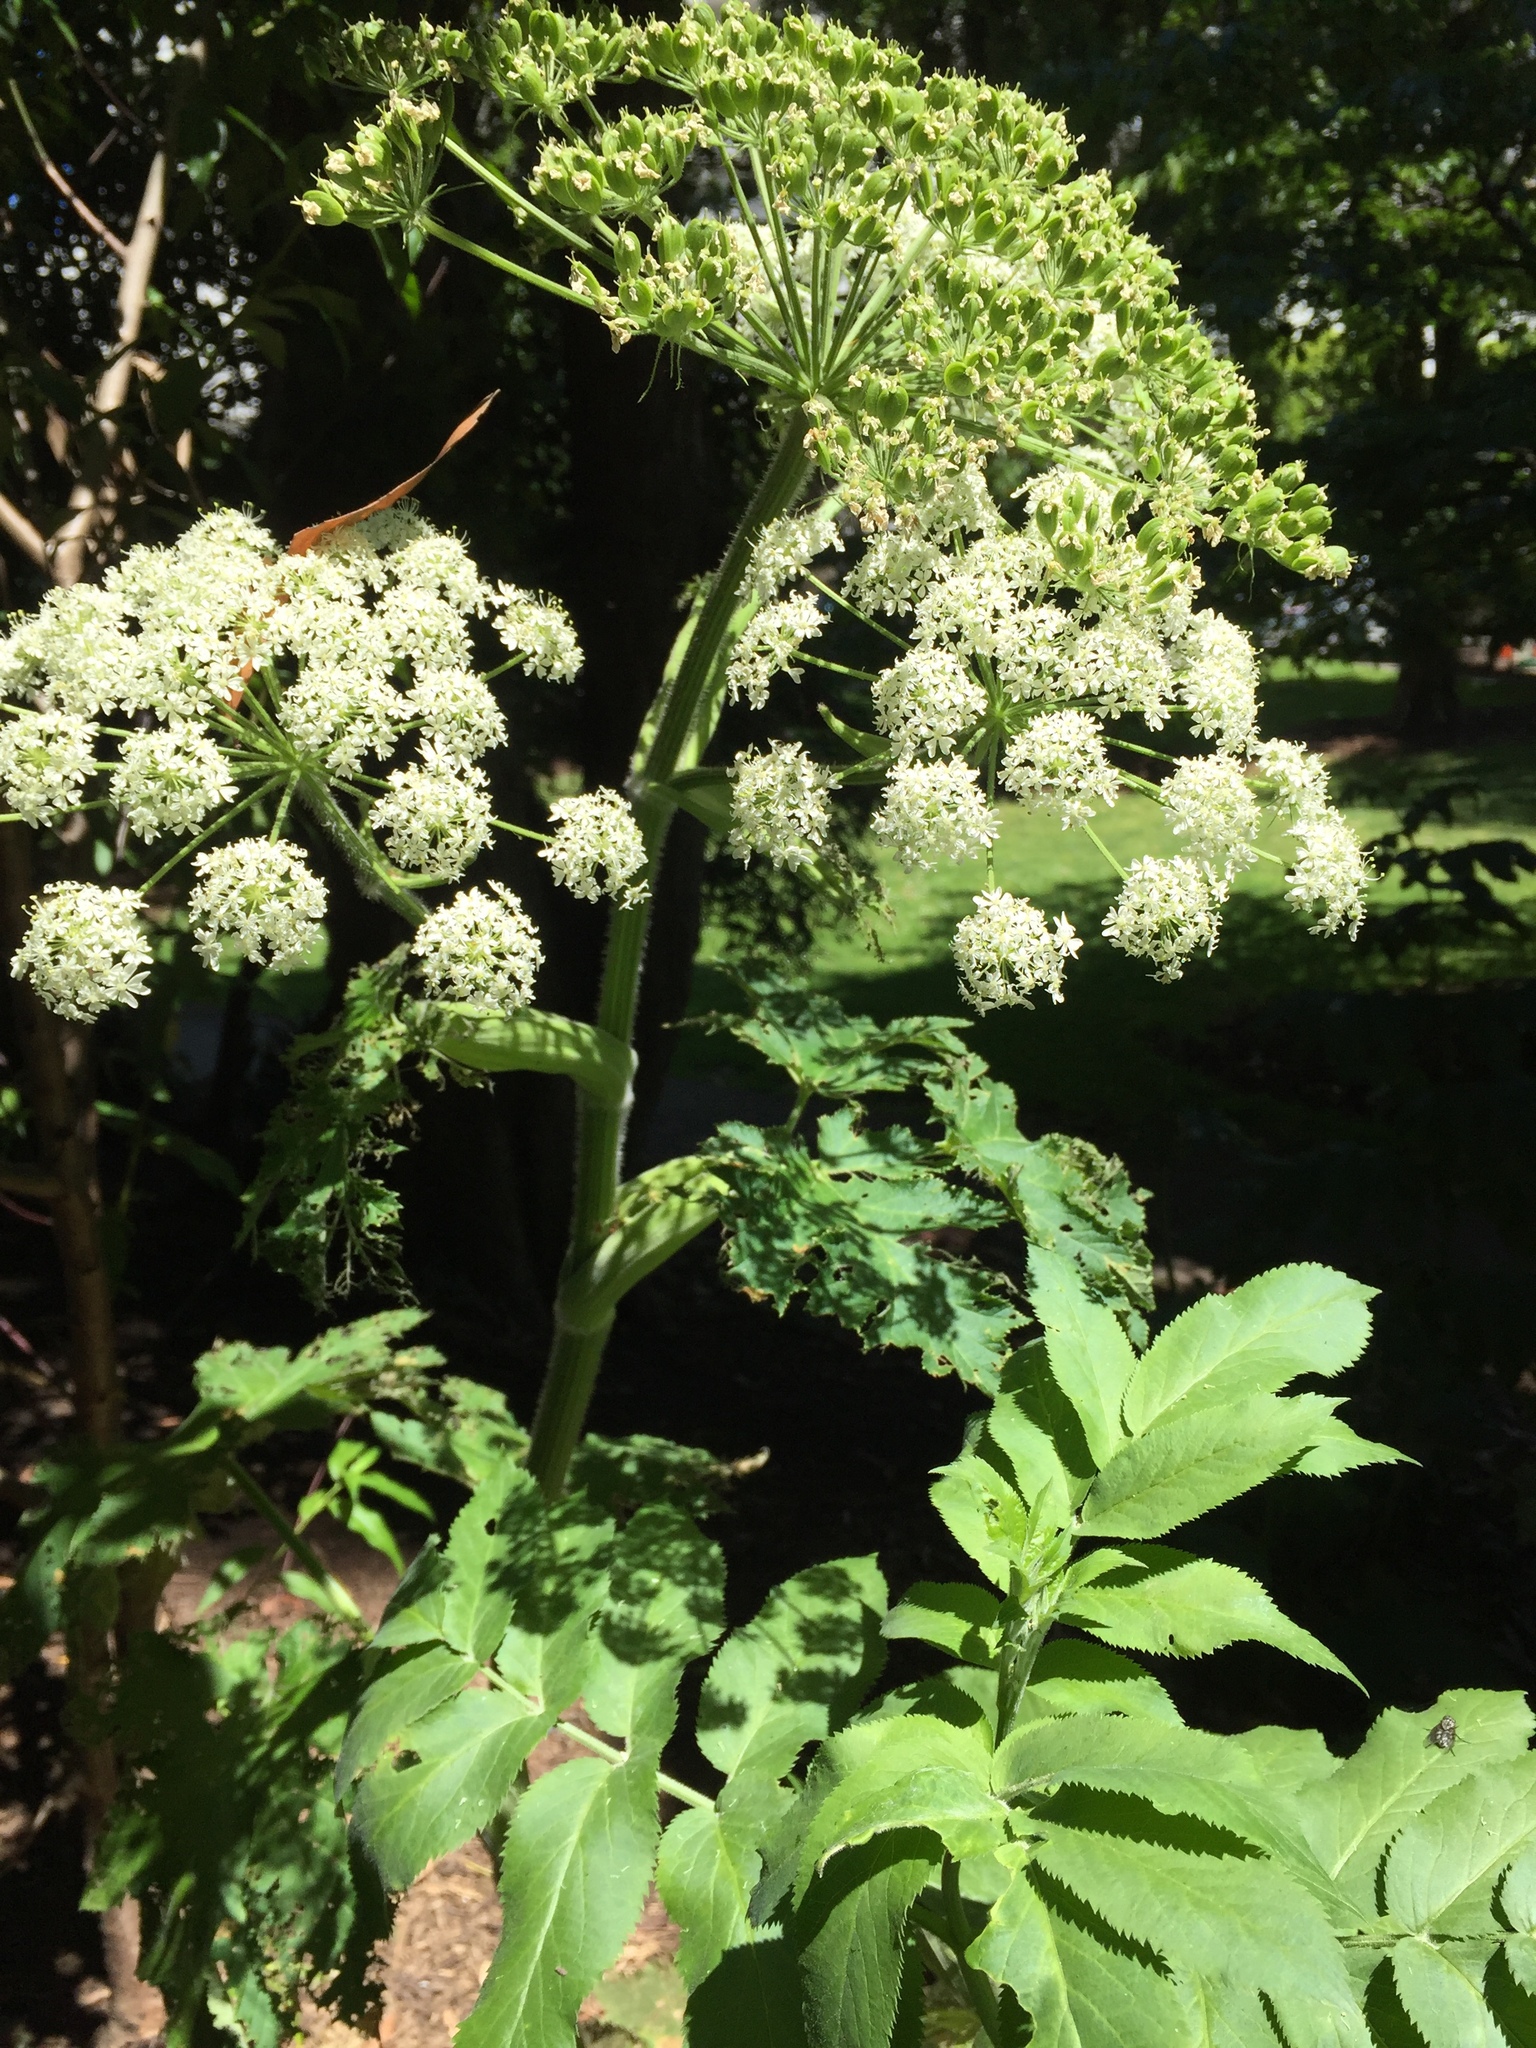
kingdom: Plantae
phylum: Tracheophyta
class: Magnoliopsida
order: Apiales
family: Apiaceae
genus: Heracleum
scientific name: Heracleum maximum
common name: American cow parsnip
